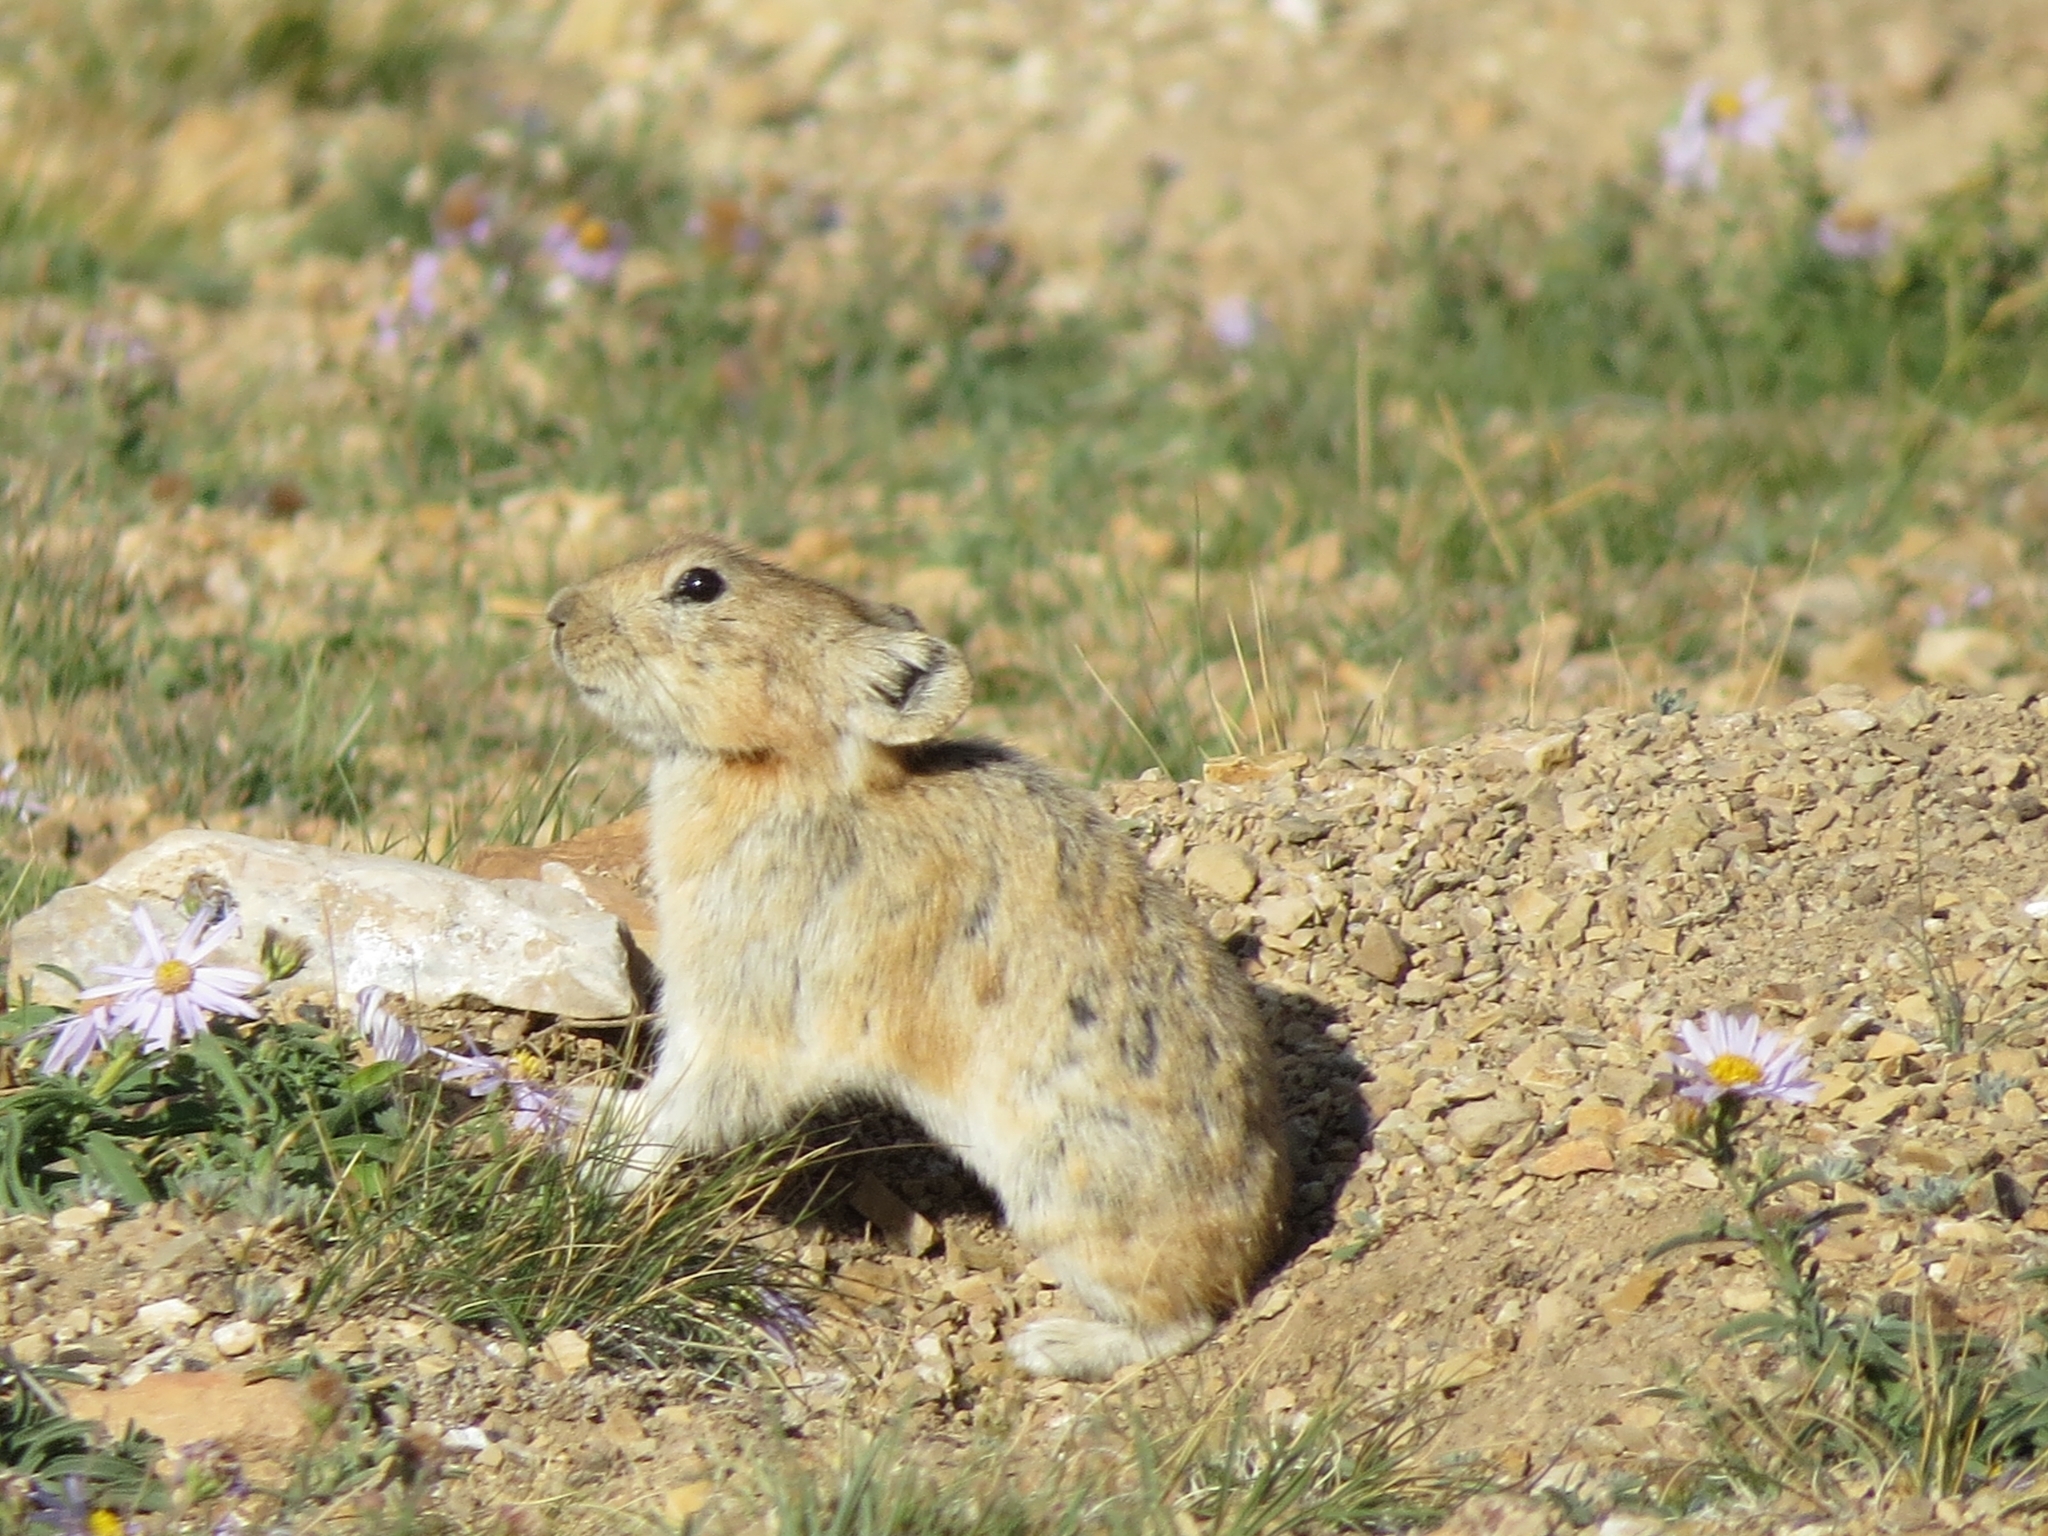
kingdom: Animalia
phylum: Chordata
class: Mammalia
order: Lagomorpha
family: Ochotonidae
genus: Ochotona
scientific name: Ochotona pallasi
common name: Mongolian pika
